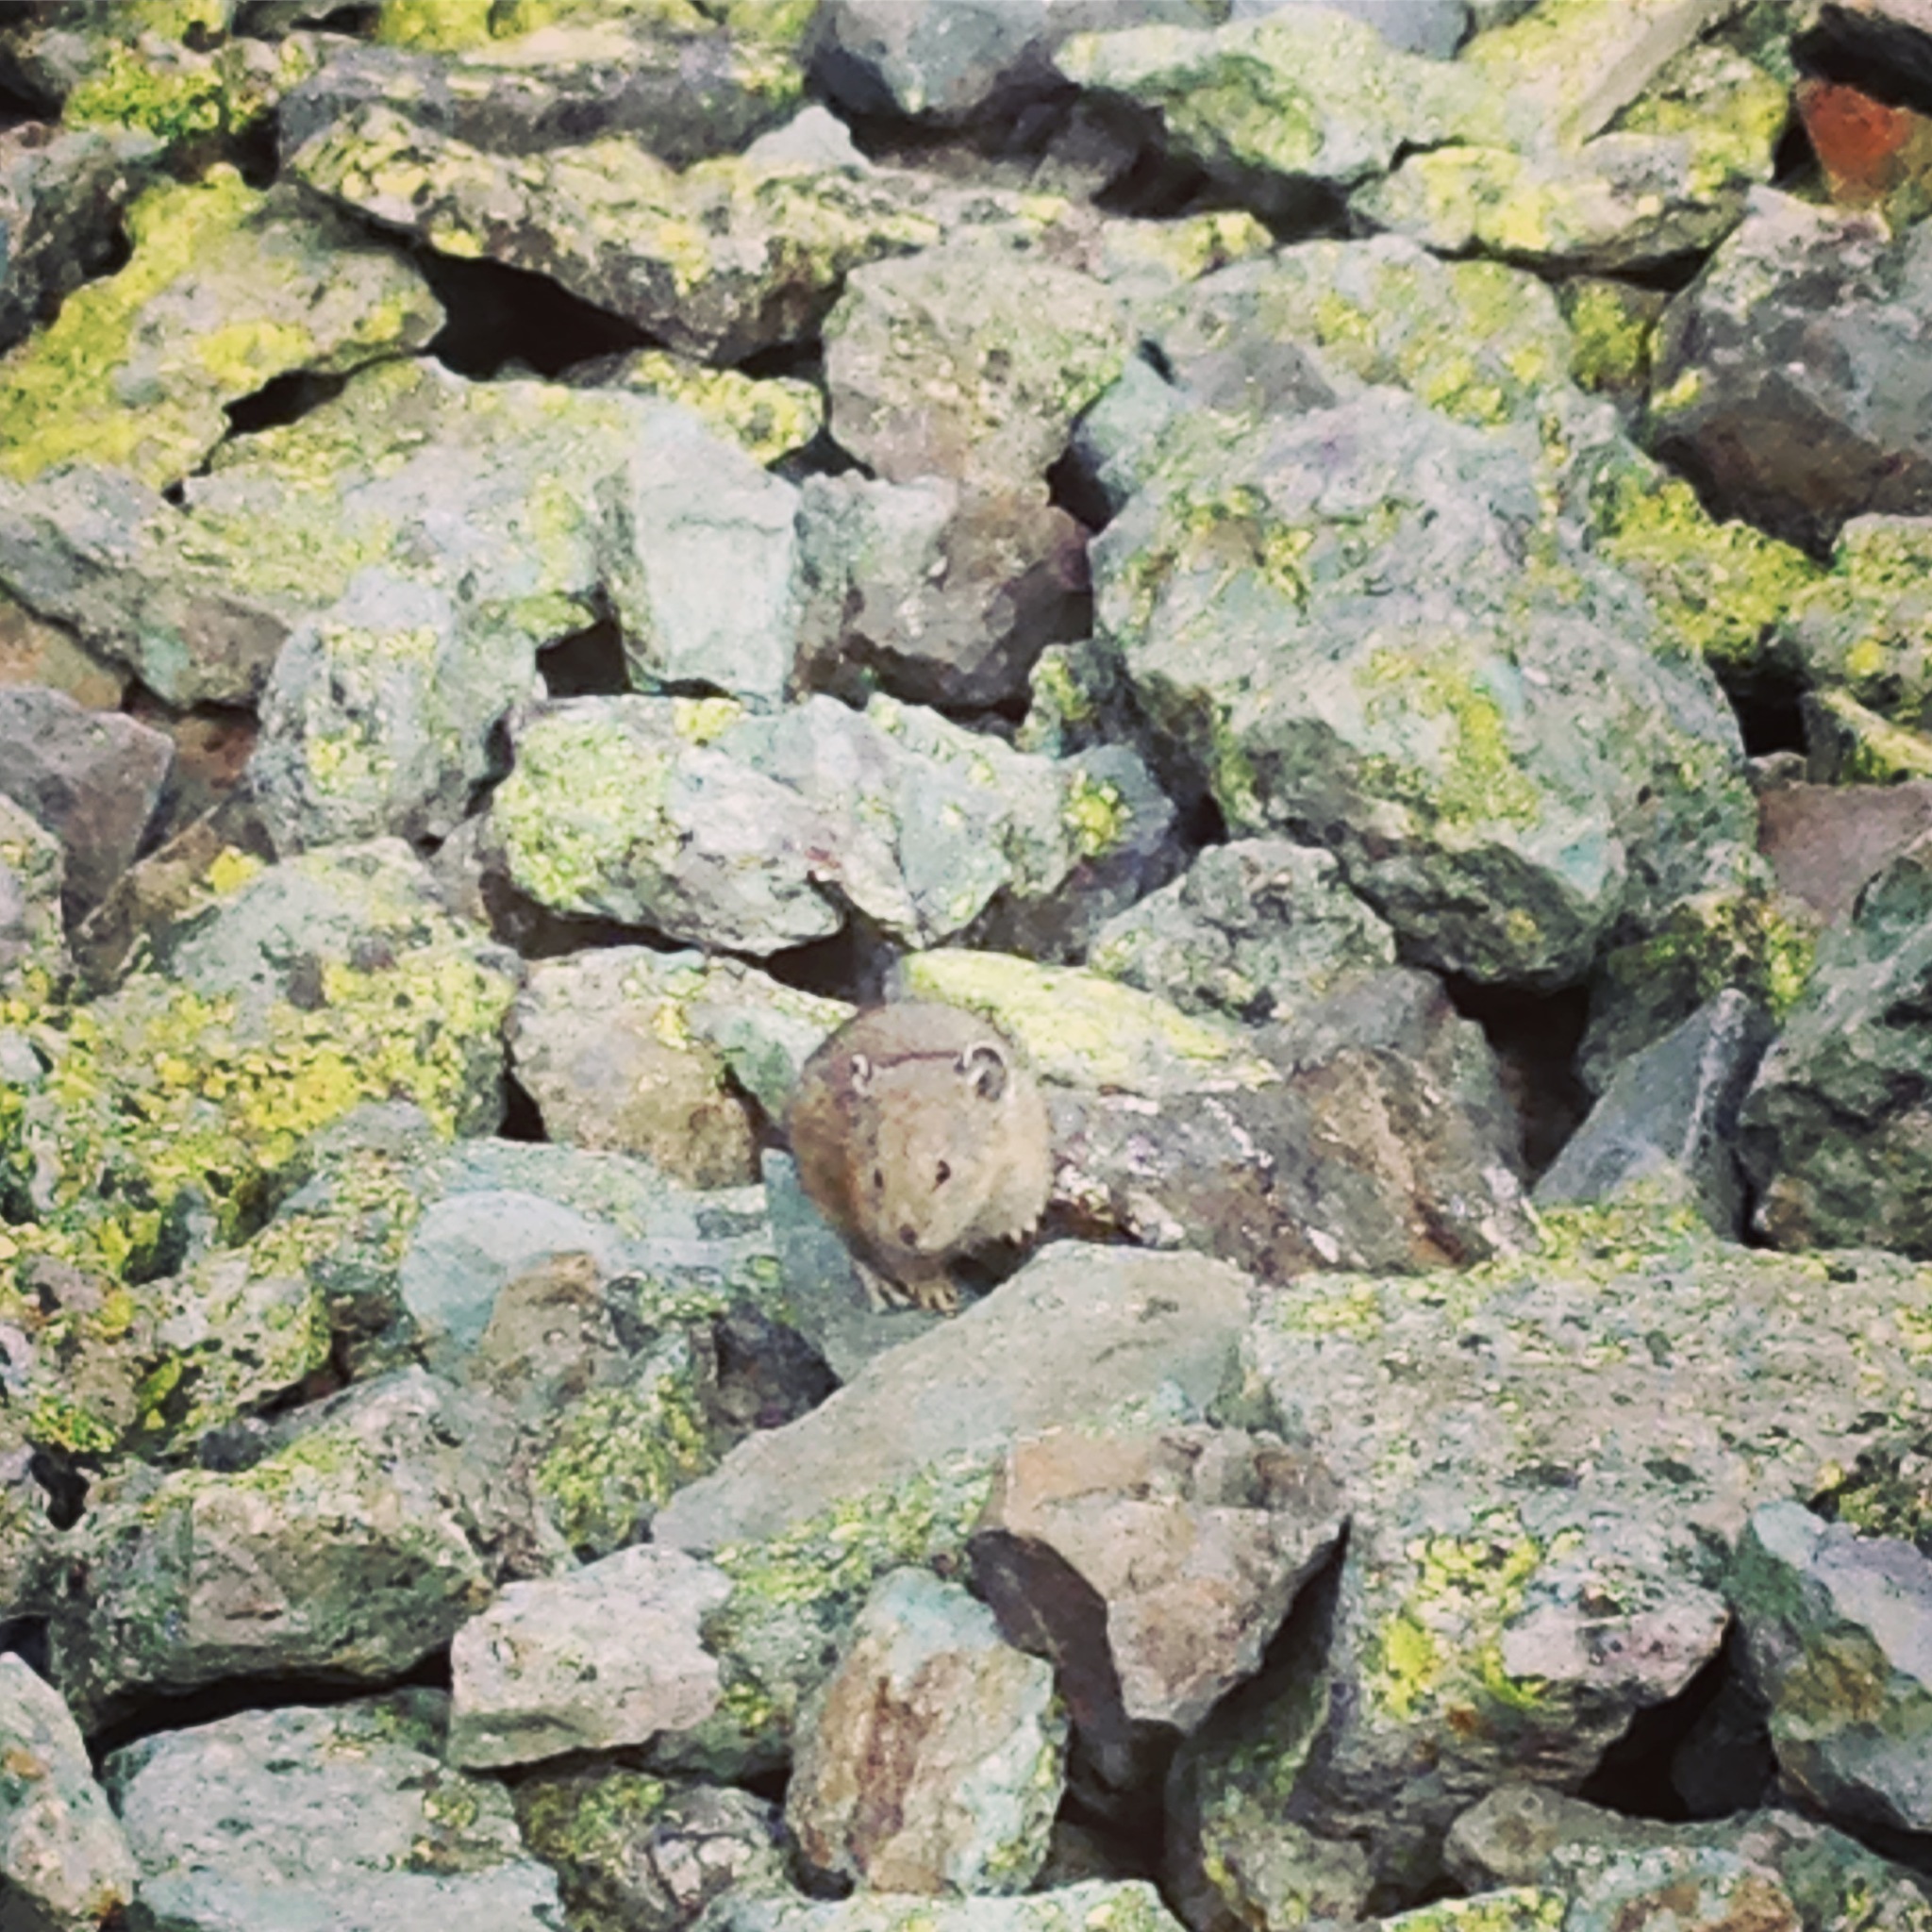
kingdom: Animalia
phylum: Chordata
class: Mammalia
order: Lagomorpha
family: Ochotonidae
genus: Ochotona
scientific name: Ochotona princeps
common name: American pika
